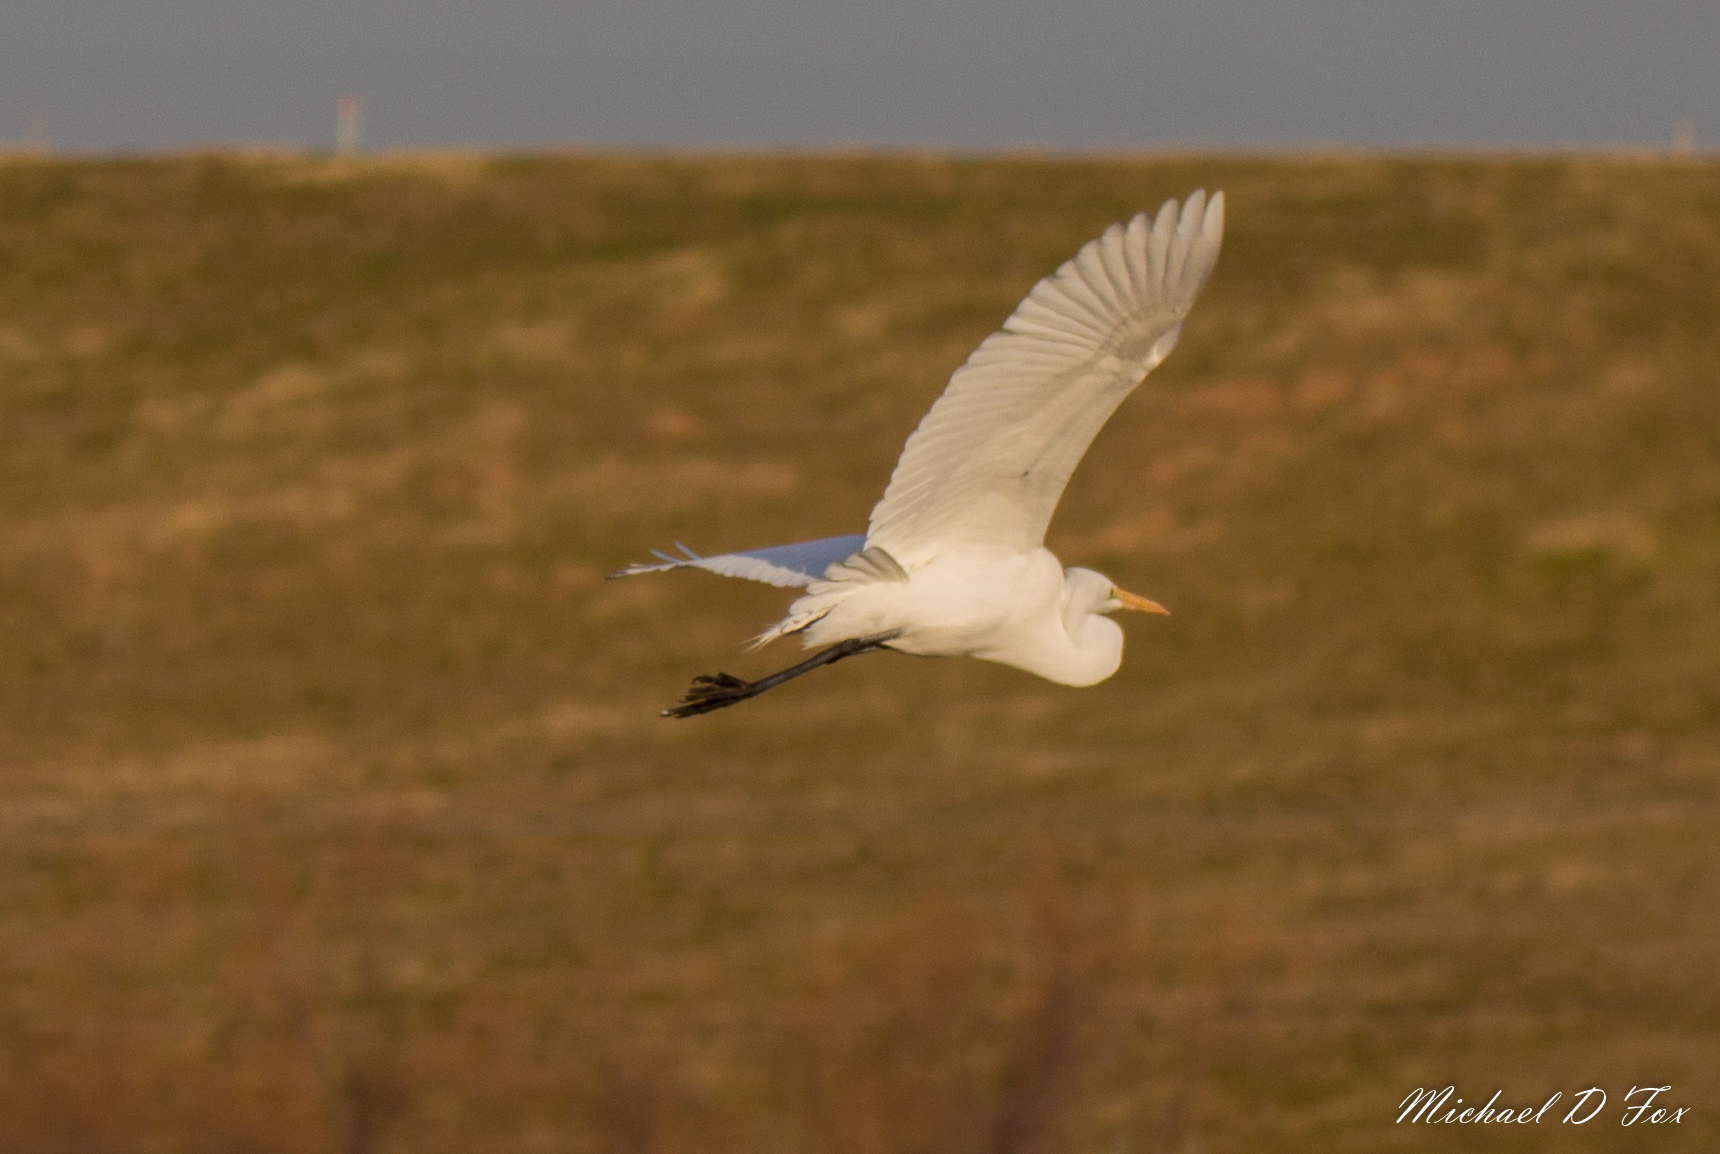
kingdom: Animalia
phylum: Chordata
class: Aves
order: Pelecaniformes
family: Ardeidae
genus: Ardea
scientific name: Ardea alba
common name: Great egret
